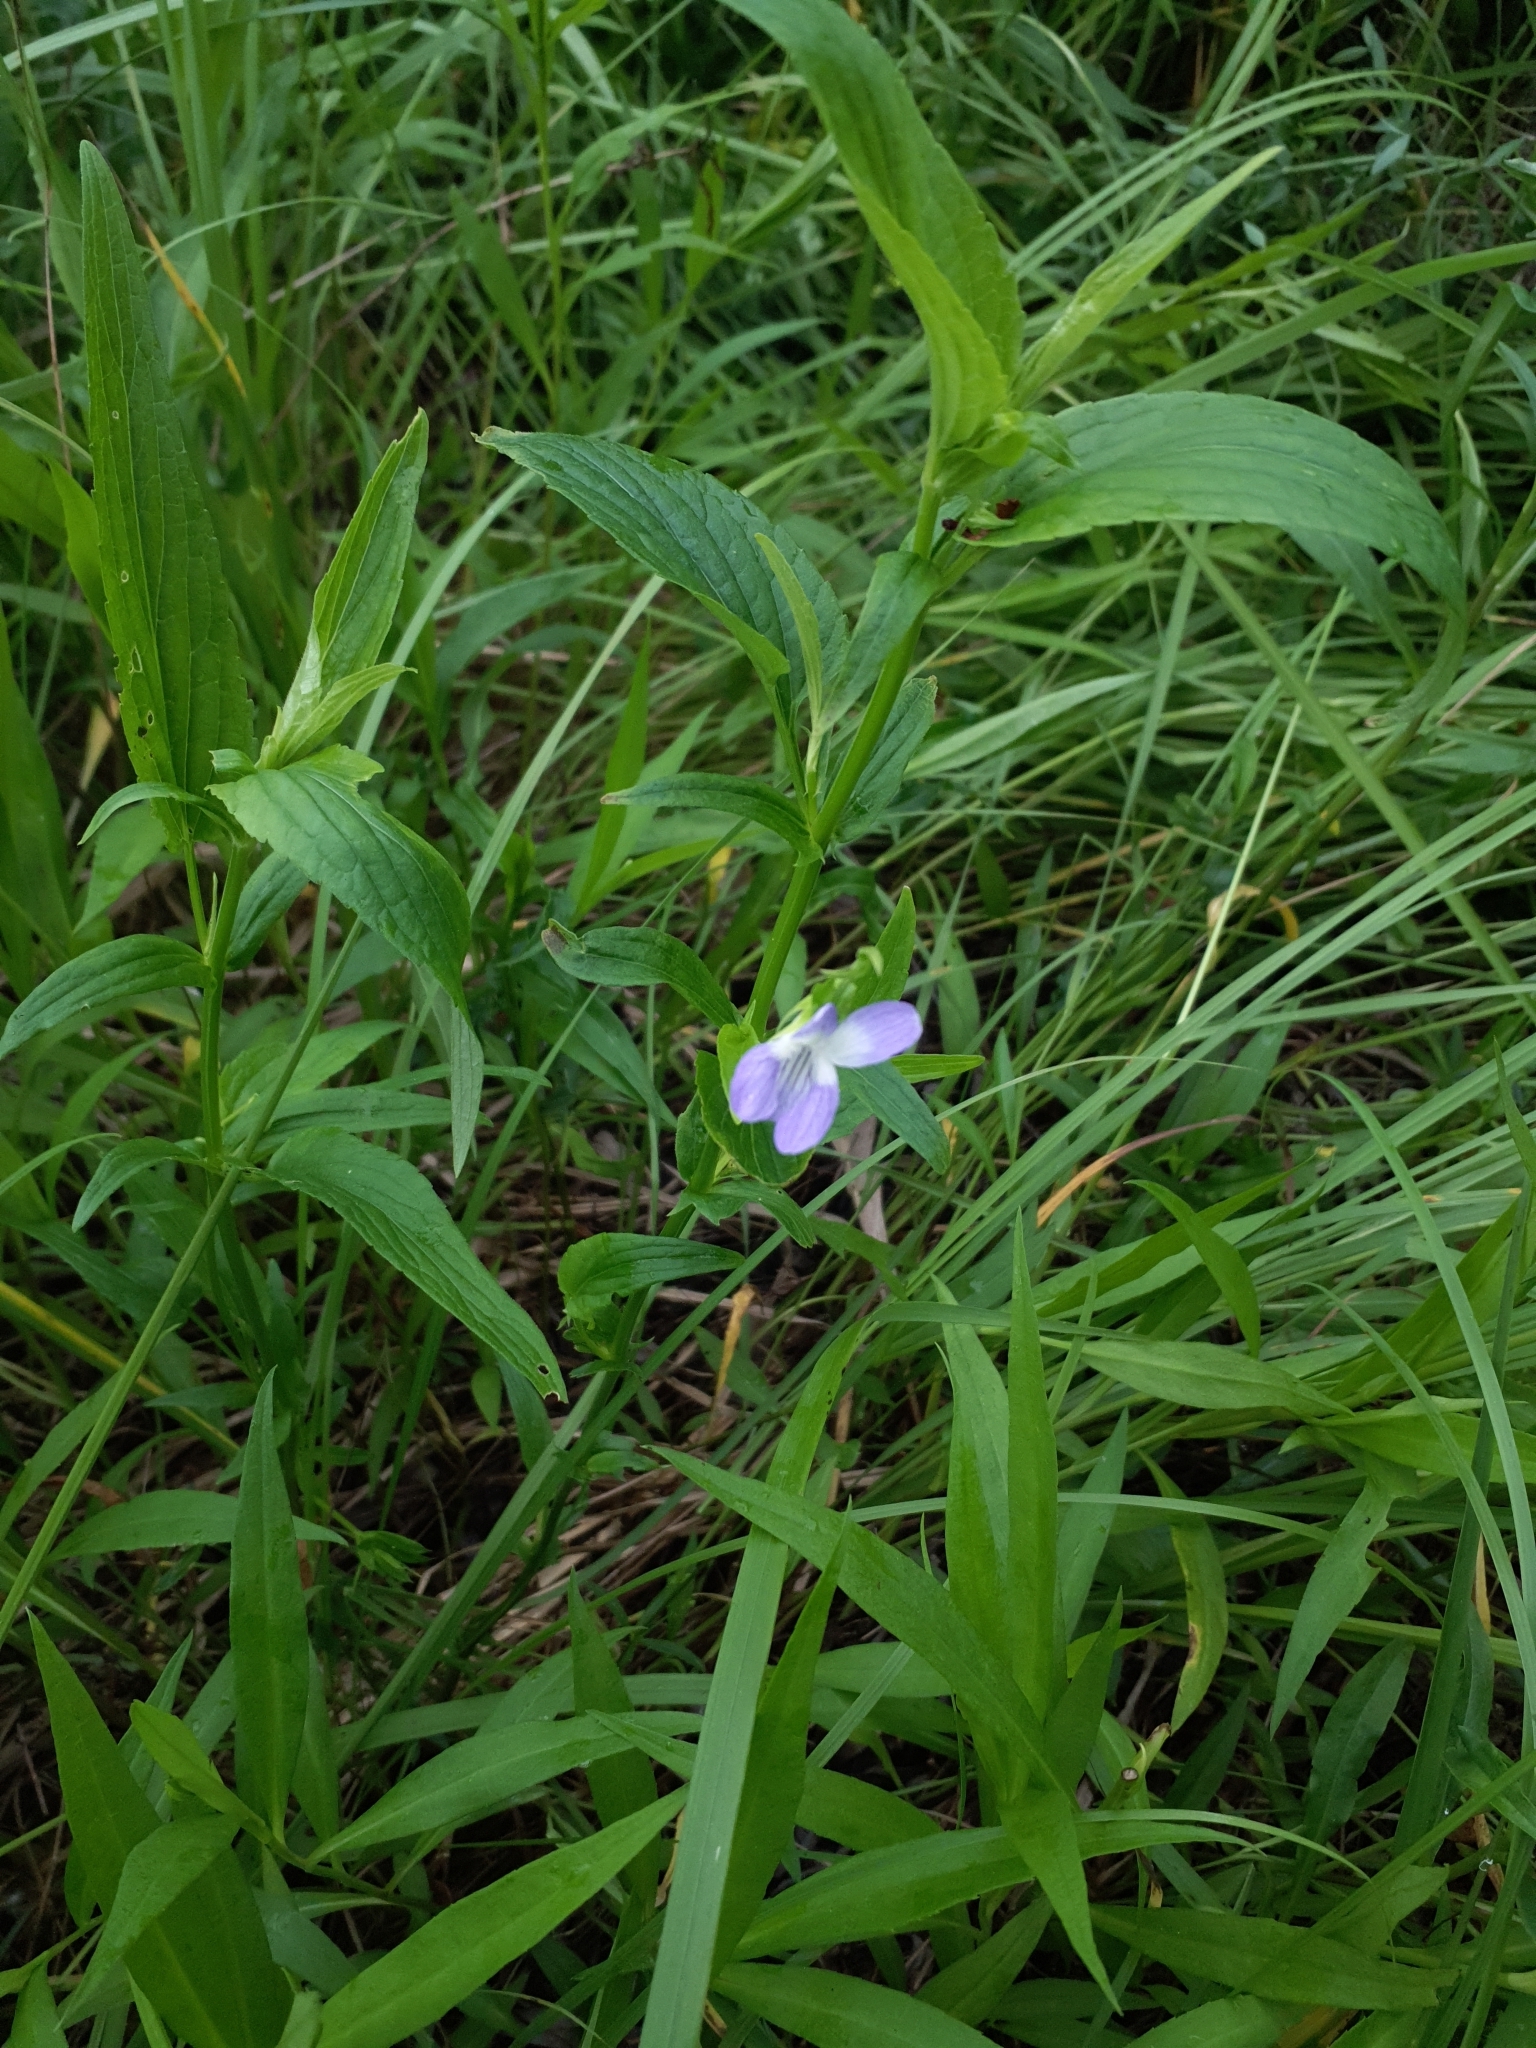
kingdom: Plantae
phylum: Tracheophyta
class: Magnoliopsida
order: Malpighiales
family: Violaceae
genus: Viola
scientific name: Viola elatior
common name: Tall violet
